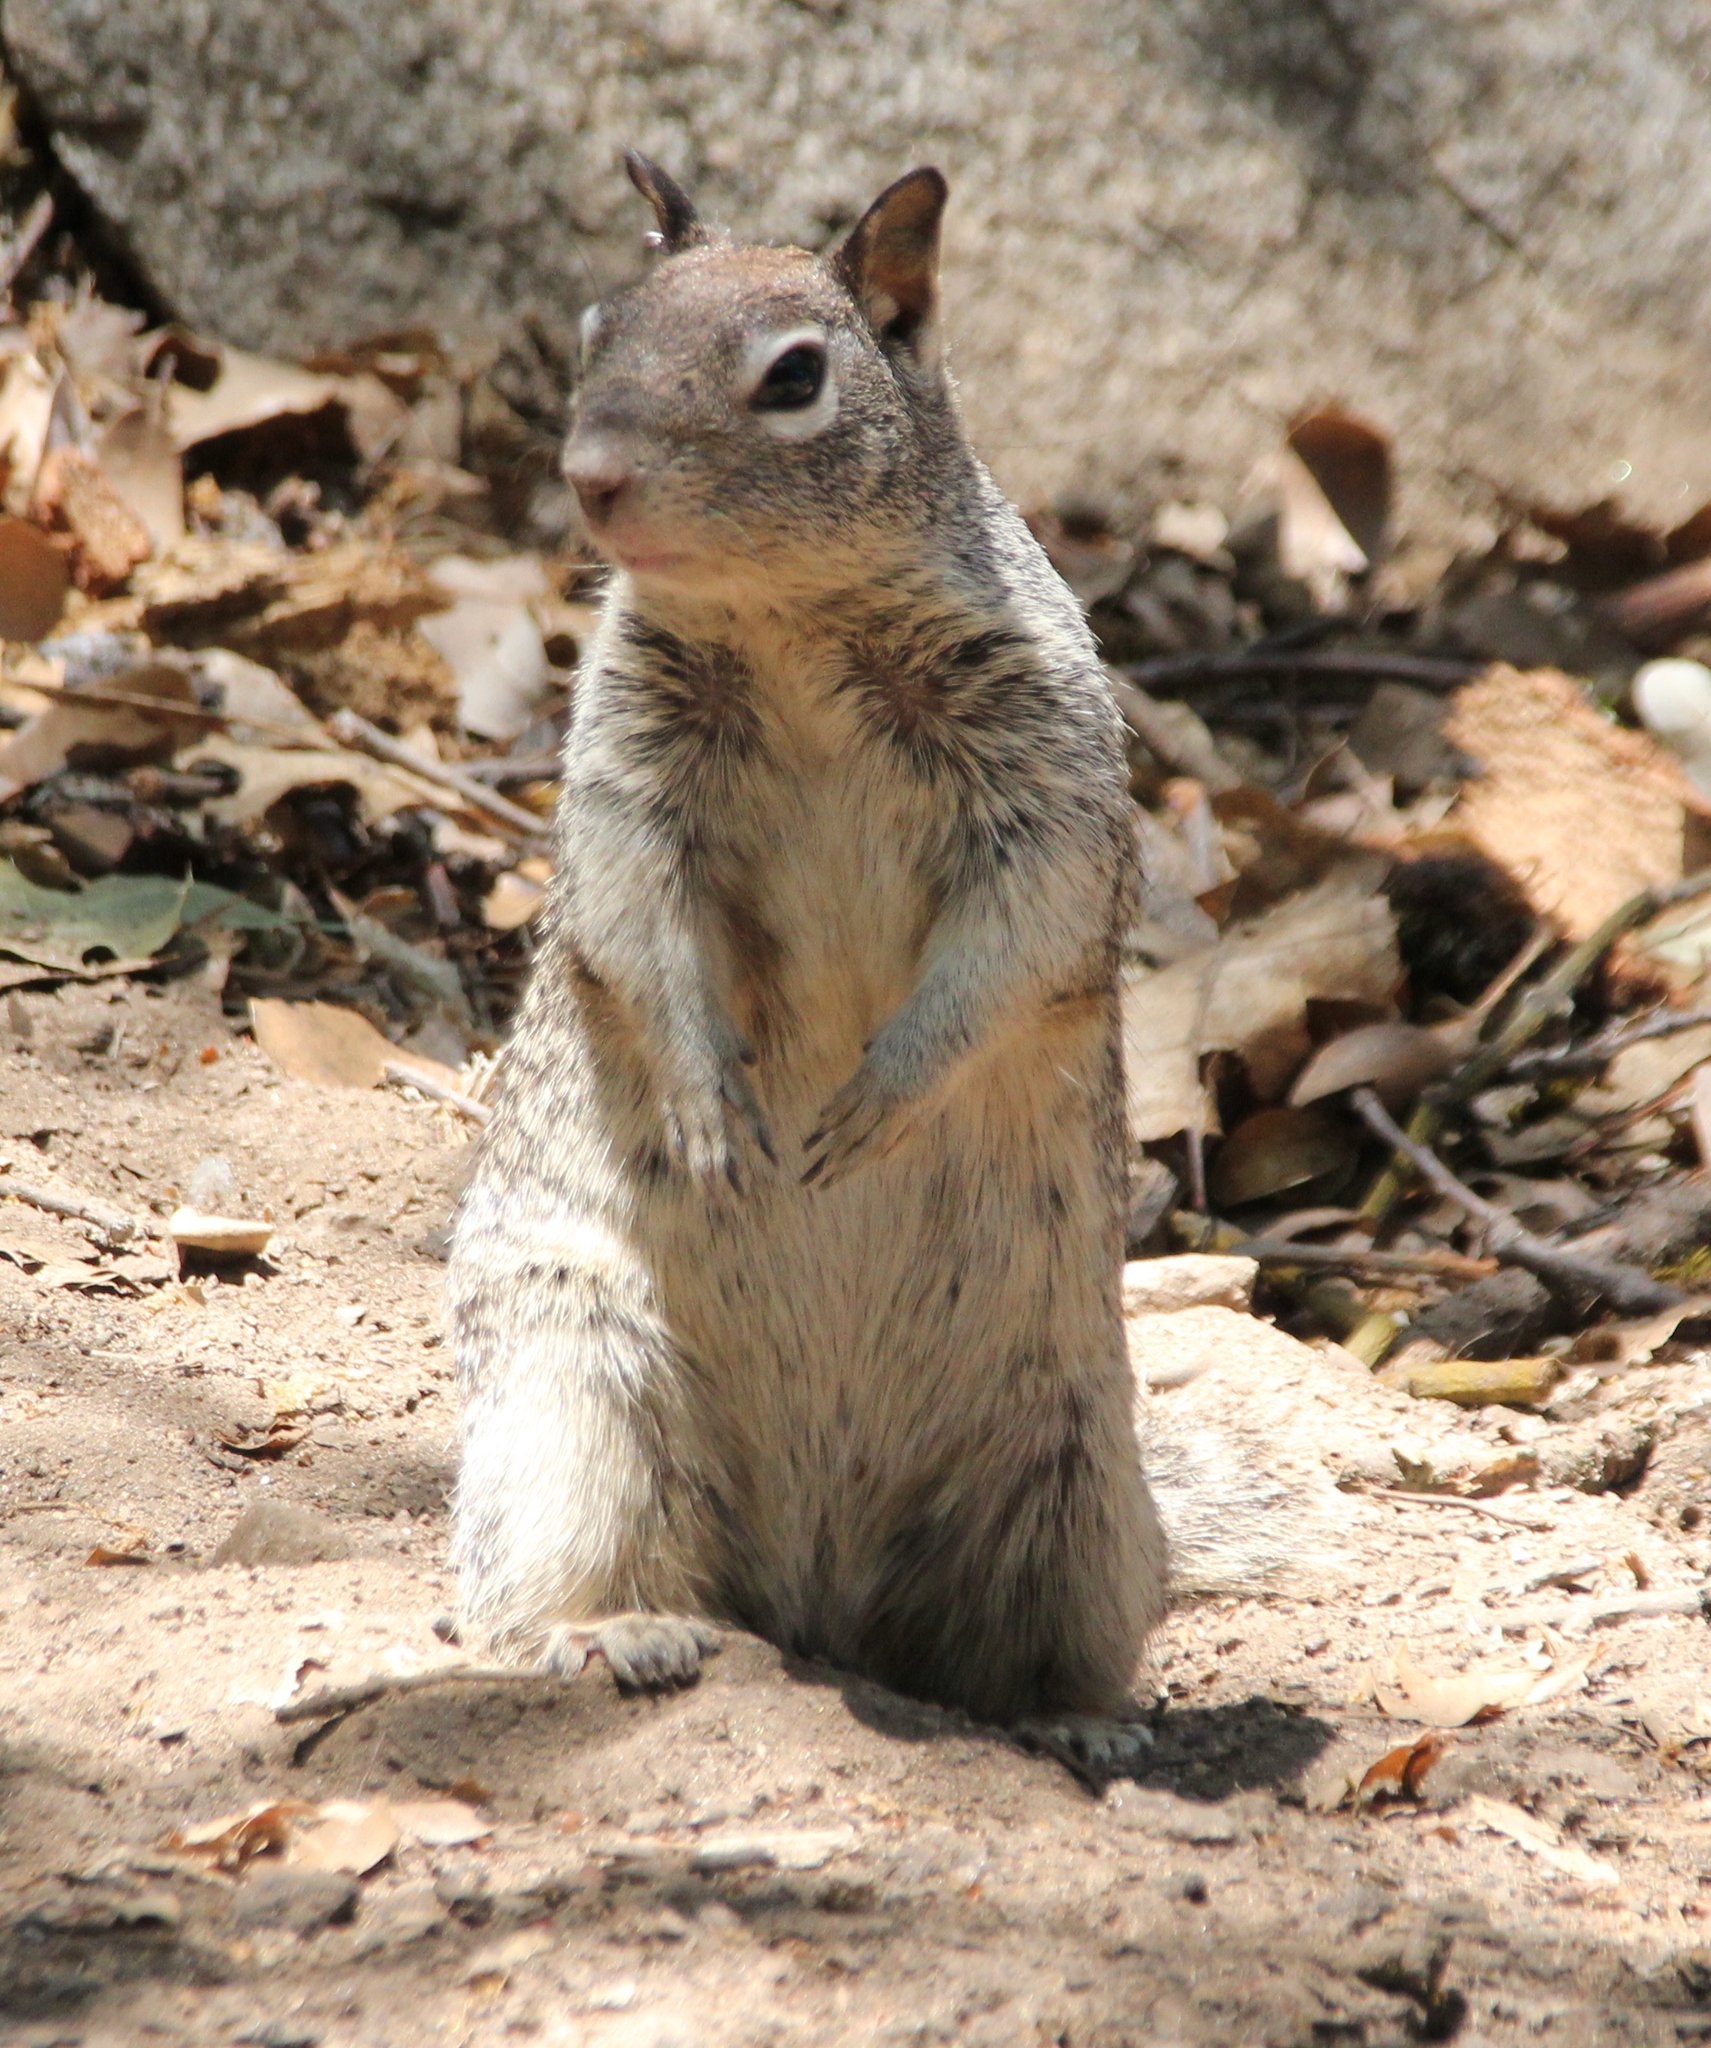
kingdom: Animalia
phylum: Chordata
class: Mammalia
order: Rodentia
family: Sciuridae
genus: Otospermophilus
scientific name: Otospermophilus beecheyi
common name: California ground squirrel
